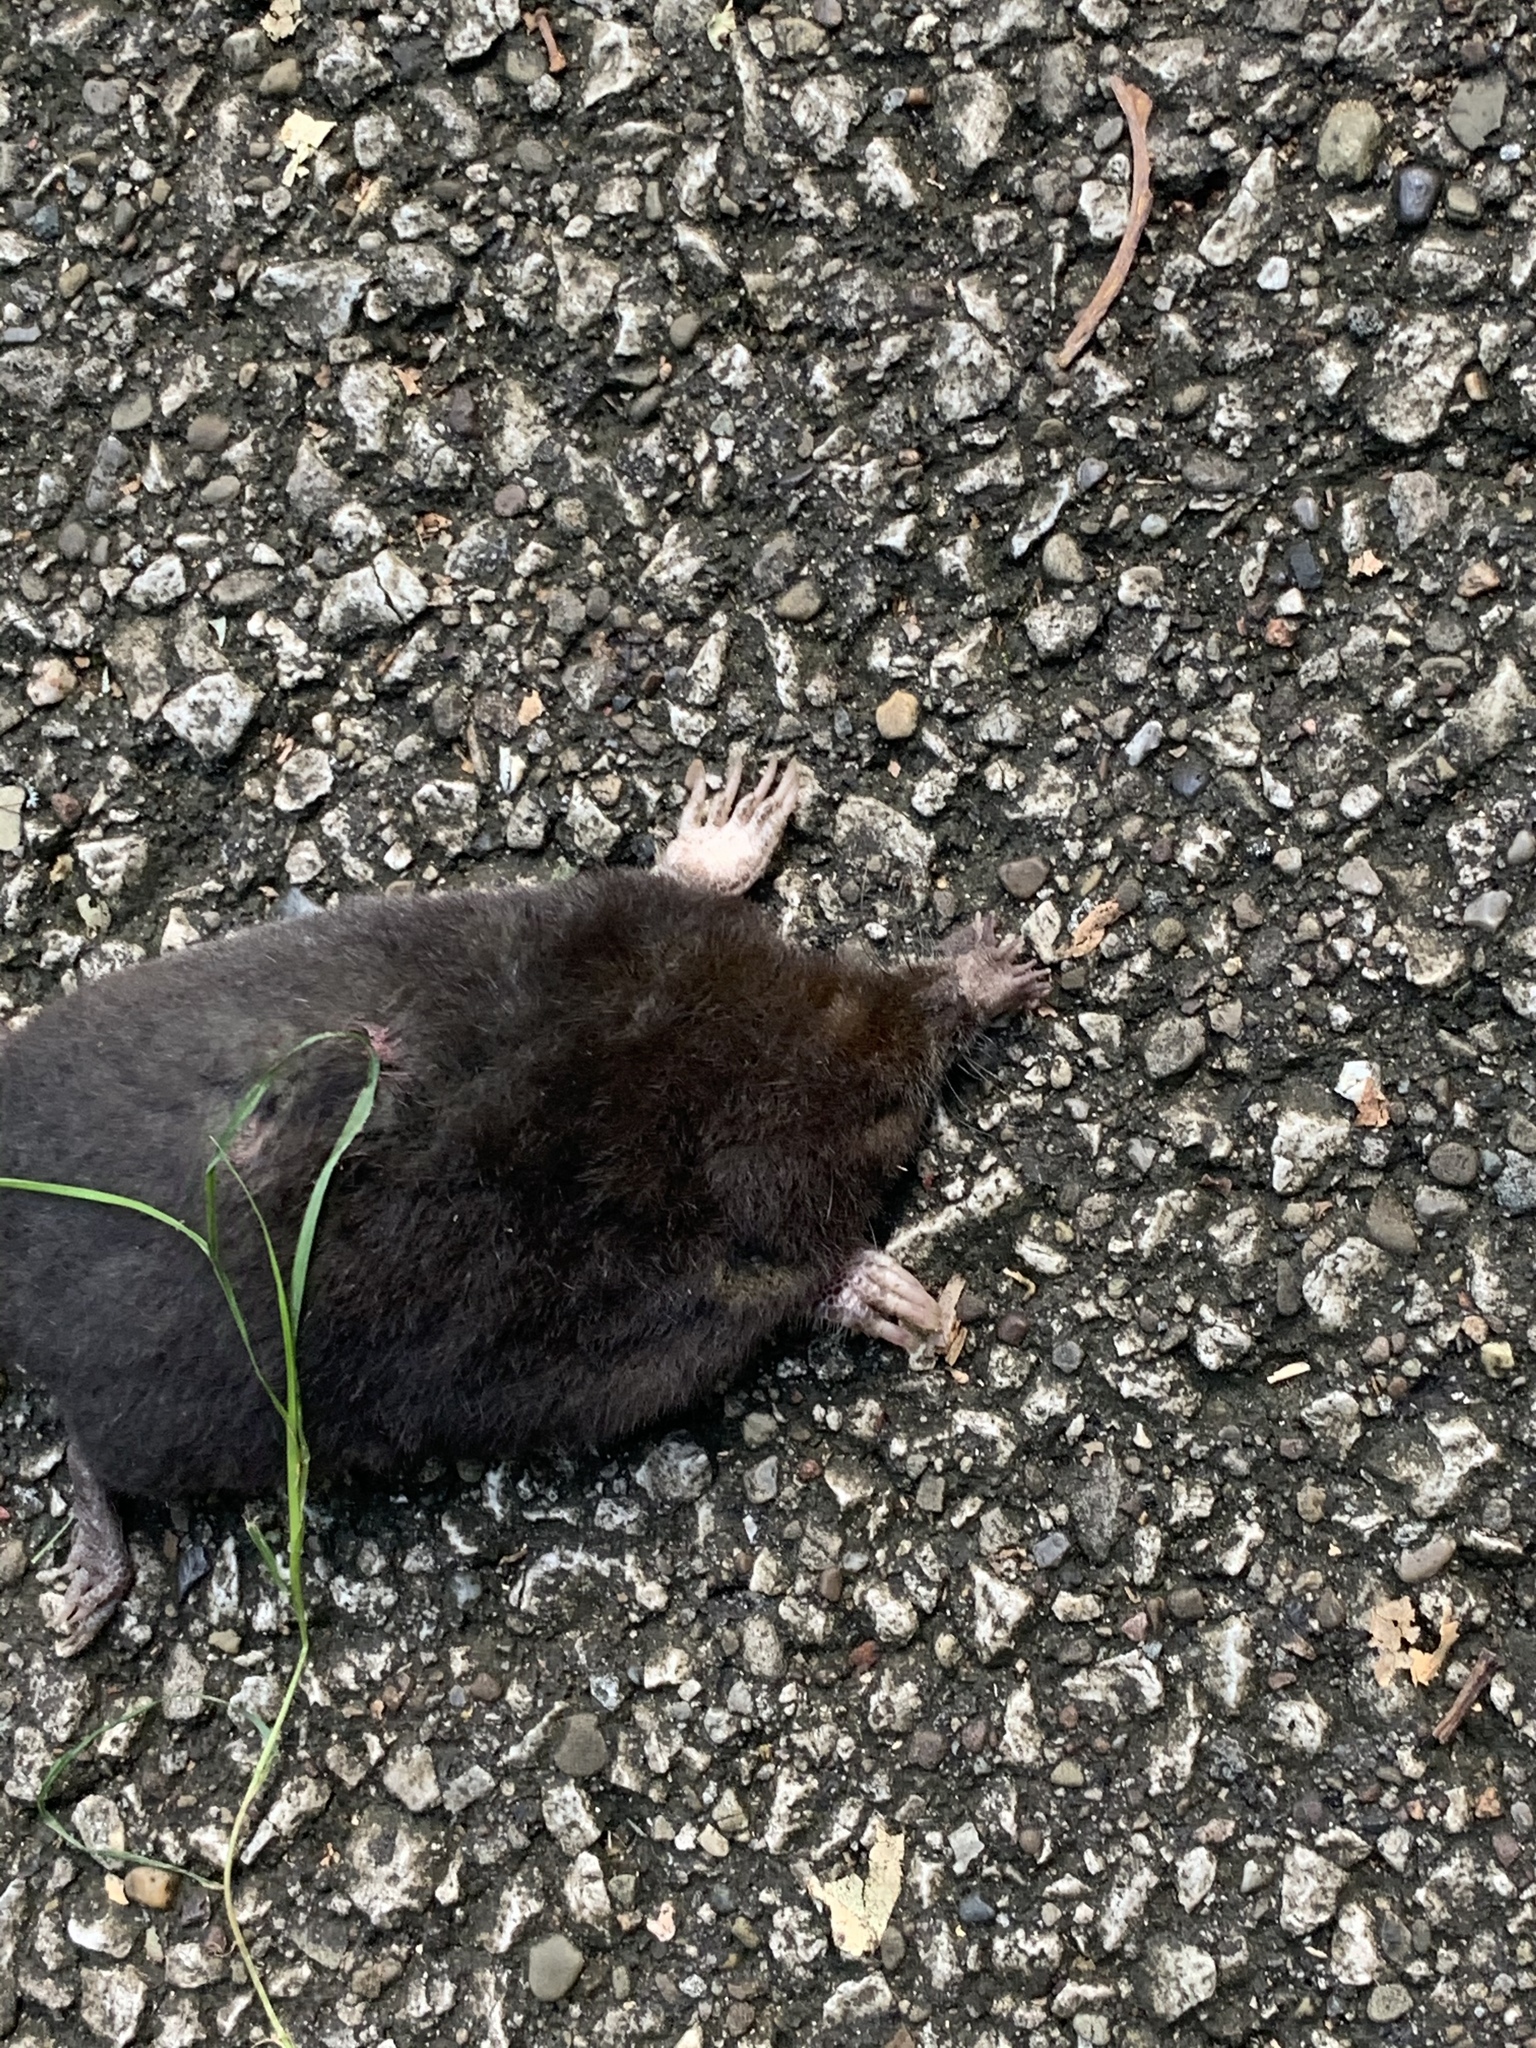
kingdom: Animalia
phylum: Chordata
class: Mammalia
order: Soricomorpha
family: Talpidae
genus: Condylura
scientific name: Condylura cristata
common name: Star-nosed mole
